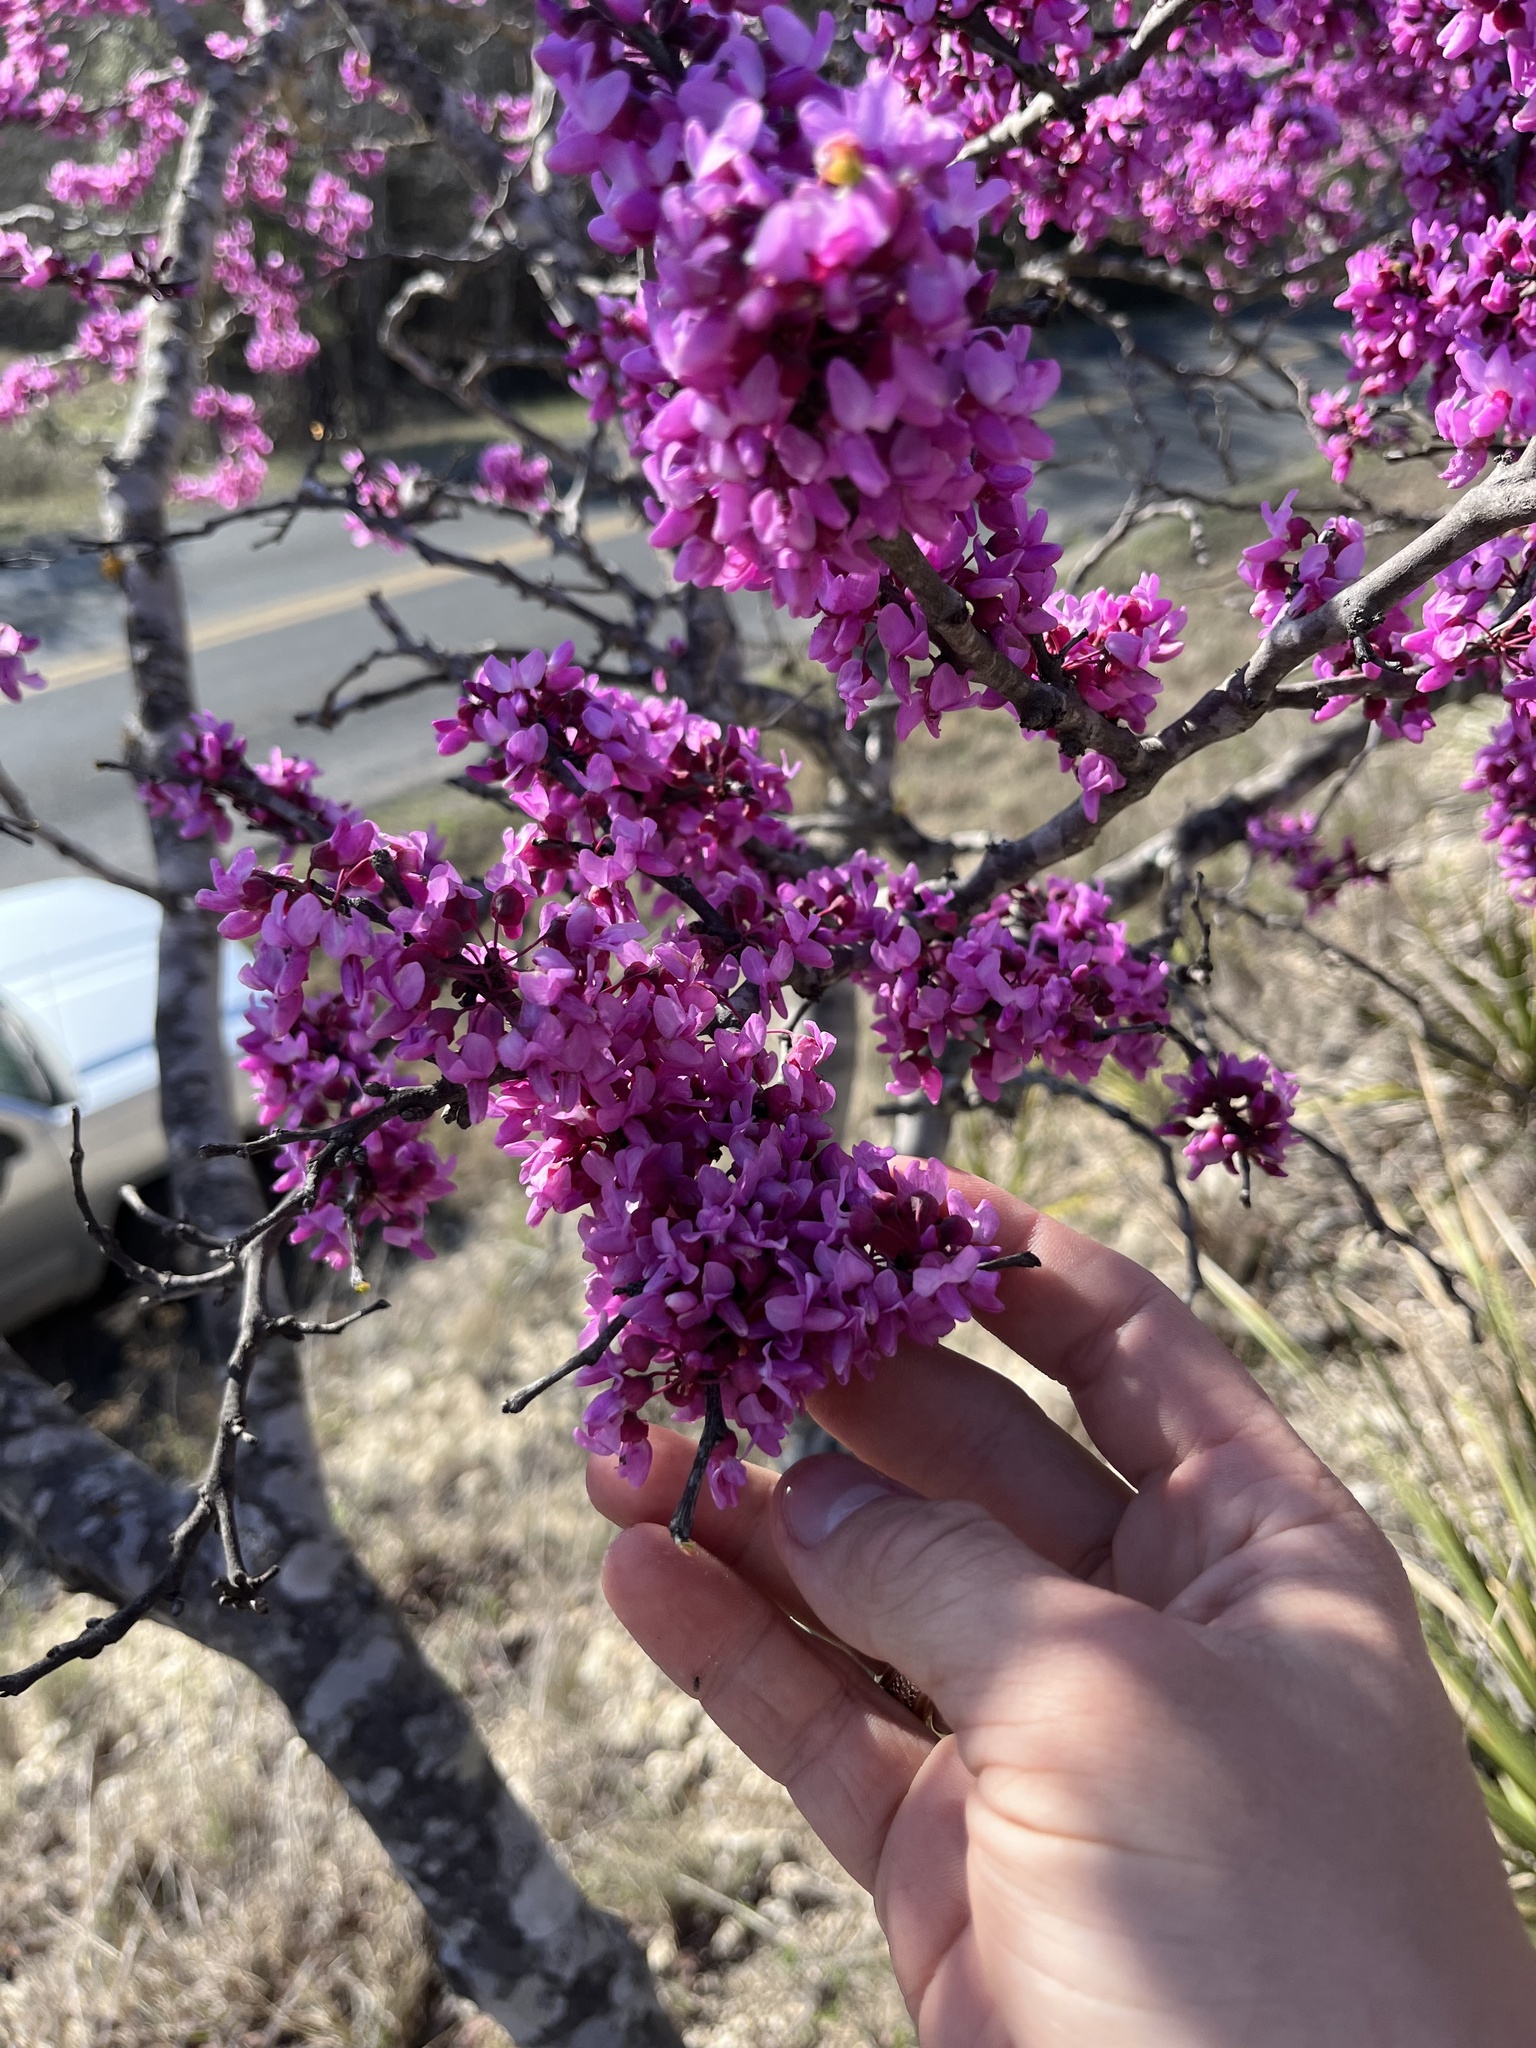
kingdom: Plantae
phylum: Tracheophyta
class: Magnoliopsida
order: Fabales
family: Fabaceae
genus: Cercis
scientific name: Cercis canadensis
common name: Eastern redbud
